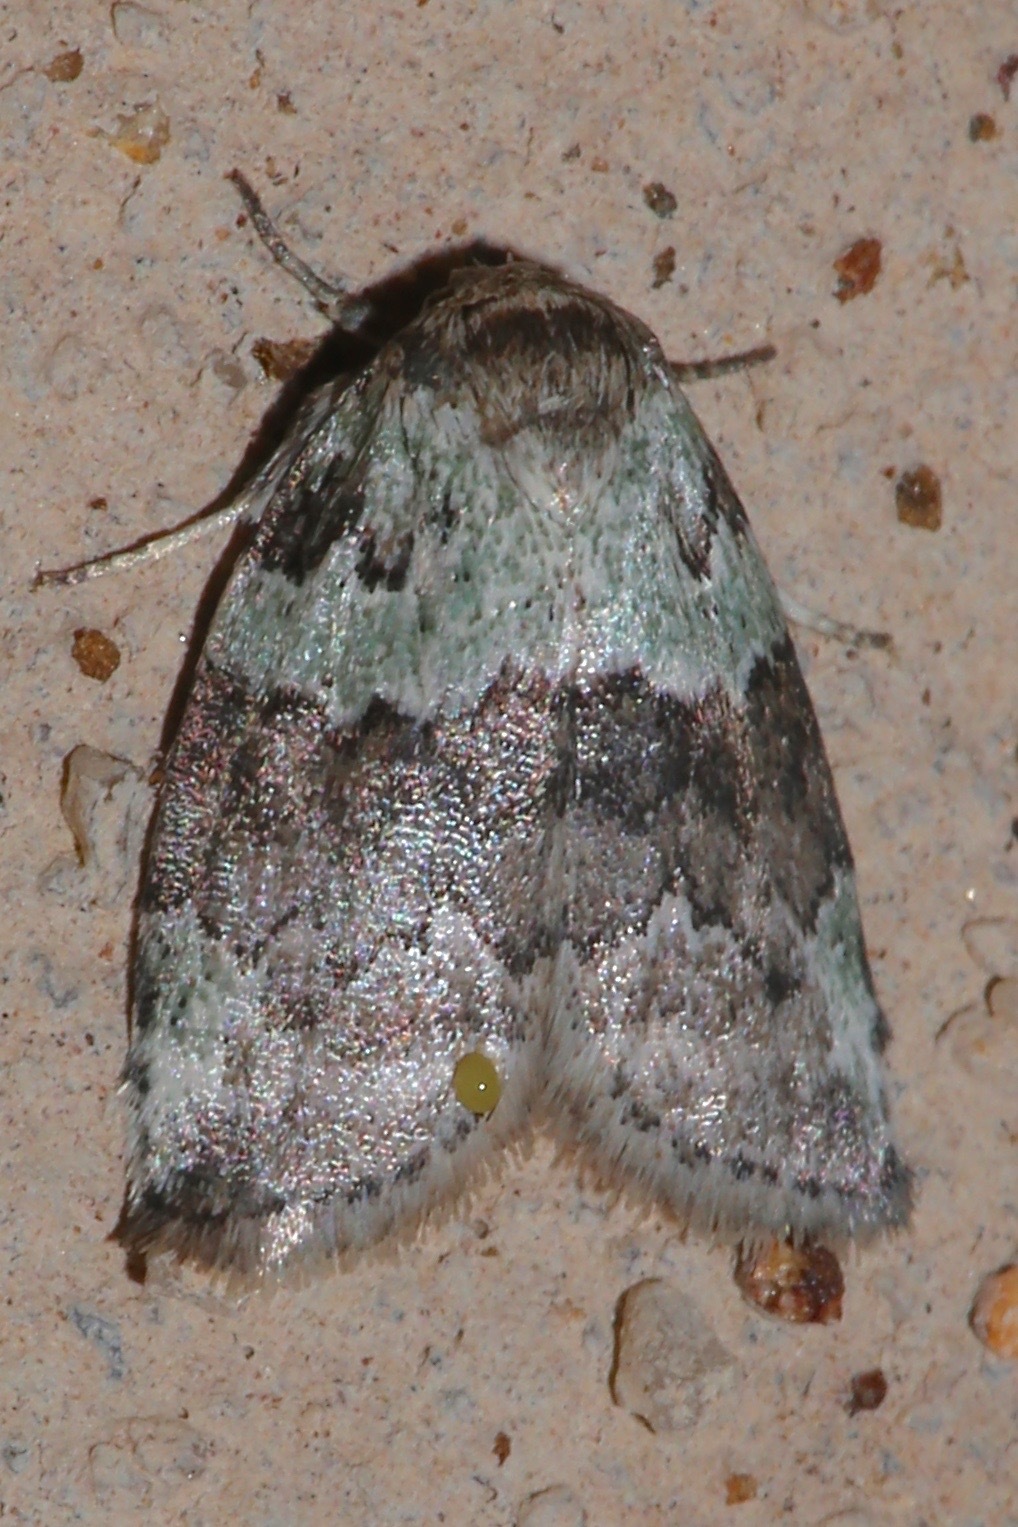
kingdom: Animalia
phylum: Arthropoda
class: Insecta
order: Lepidoptera
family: Nolidae
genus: Afrida
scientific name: Afrida ydatodes
